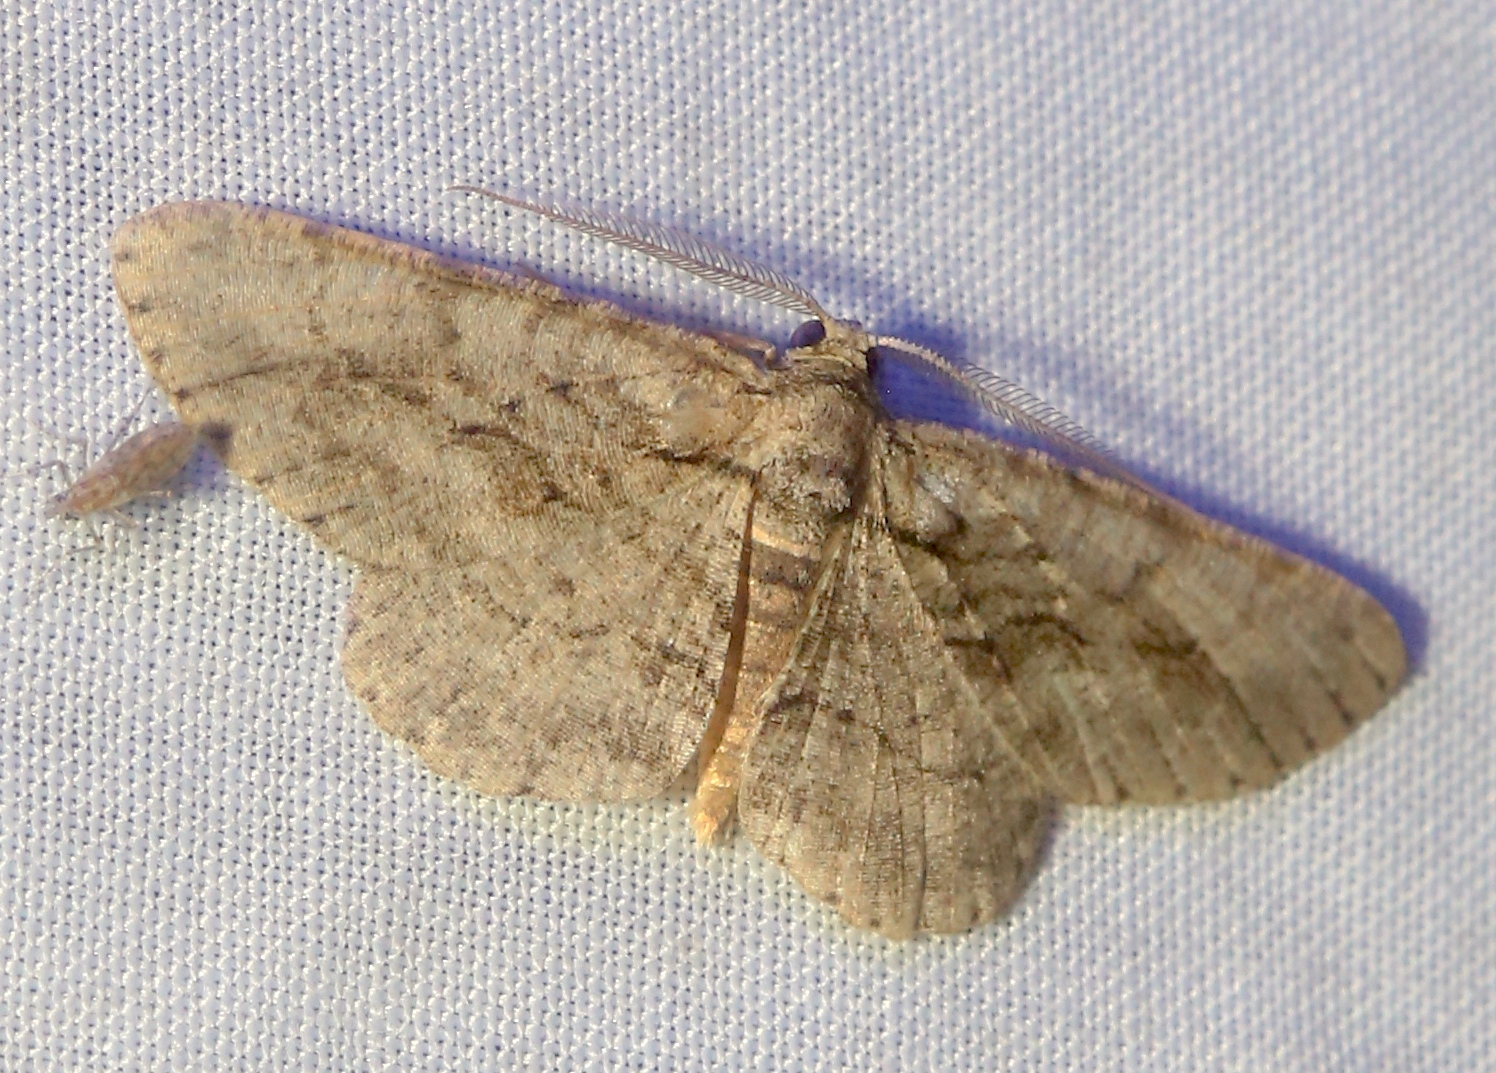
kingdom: Animalia
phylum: Arthropoda
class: Insecta
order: Lepidoptera
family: Geometridae
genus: Anavitrinella
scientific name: Anavitrinella pampinaria
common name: Common gray
